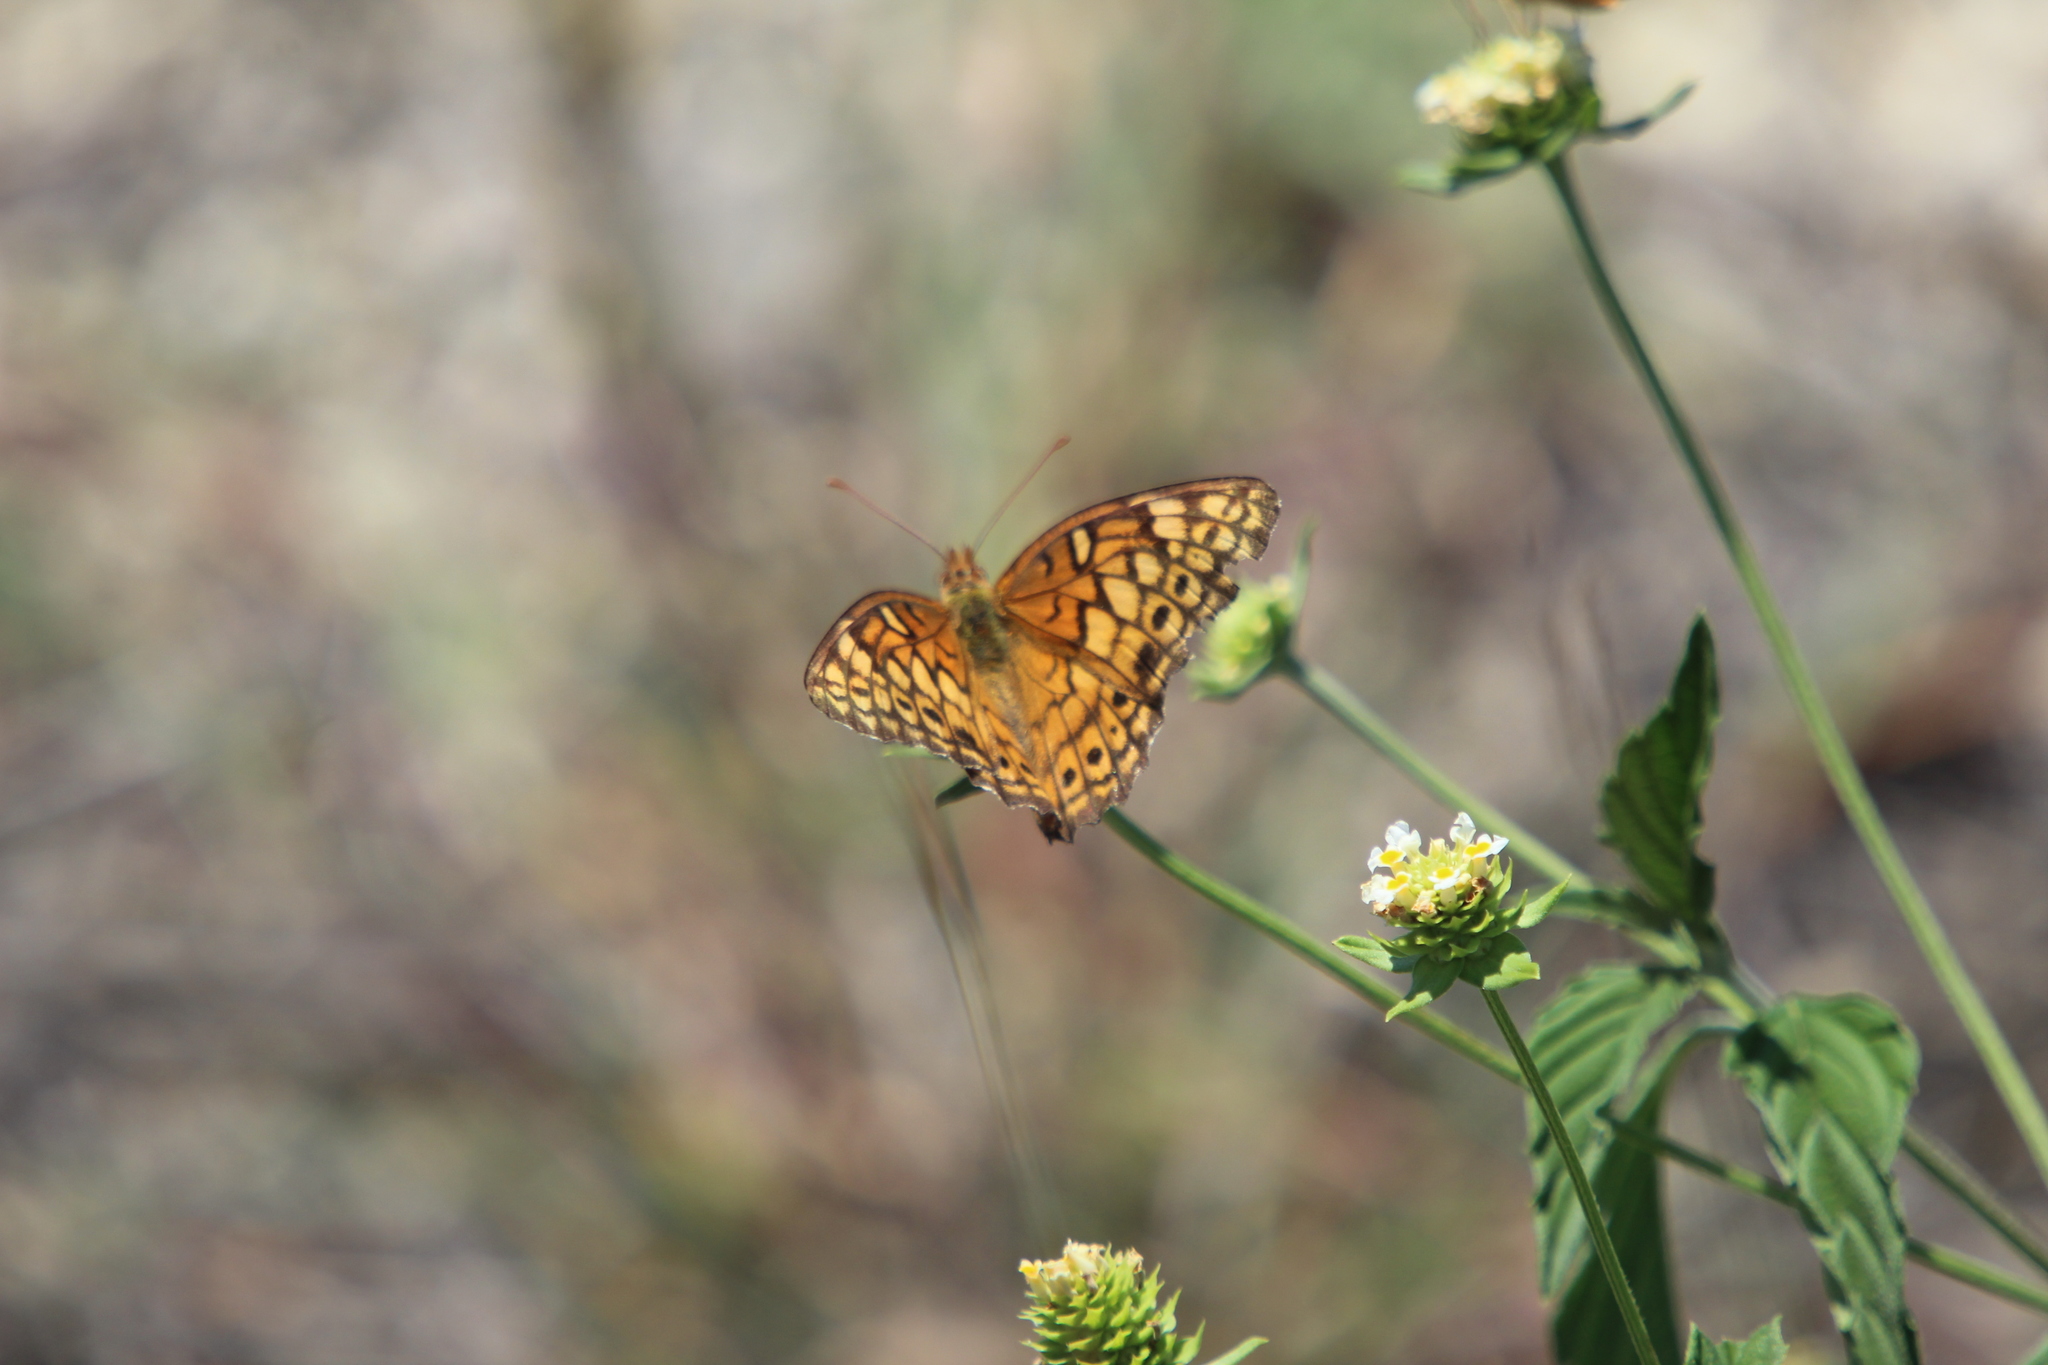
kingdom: Animalia
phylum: Arthropoda
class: Insecta
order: Lepidoptera
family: Nymphalidae
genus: Euptoieta
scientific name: Euptoieta claudia
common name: Variegated fritillary
